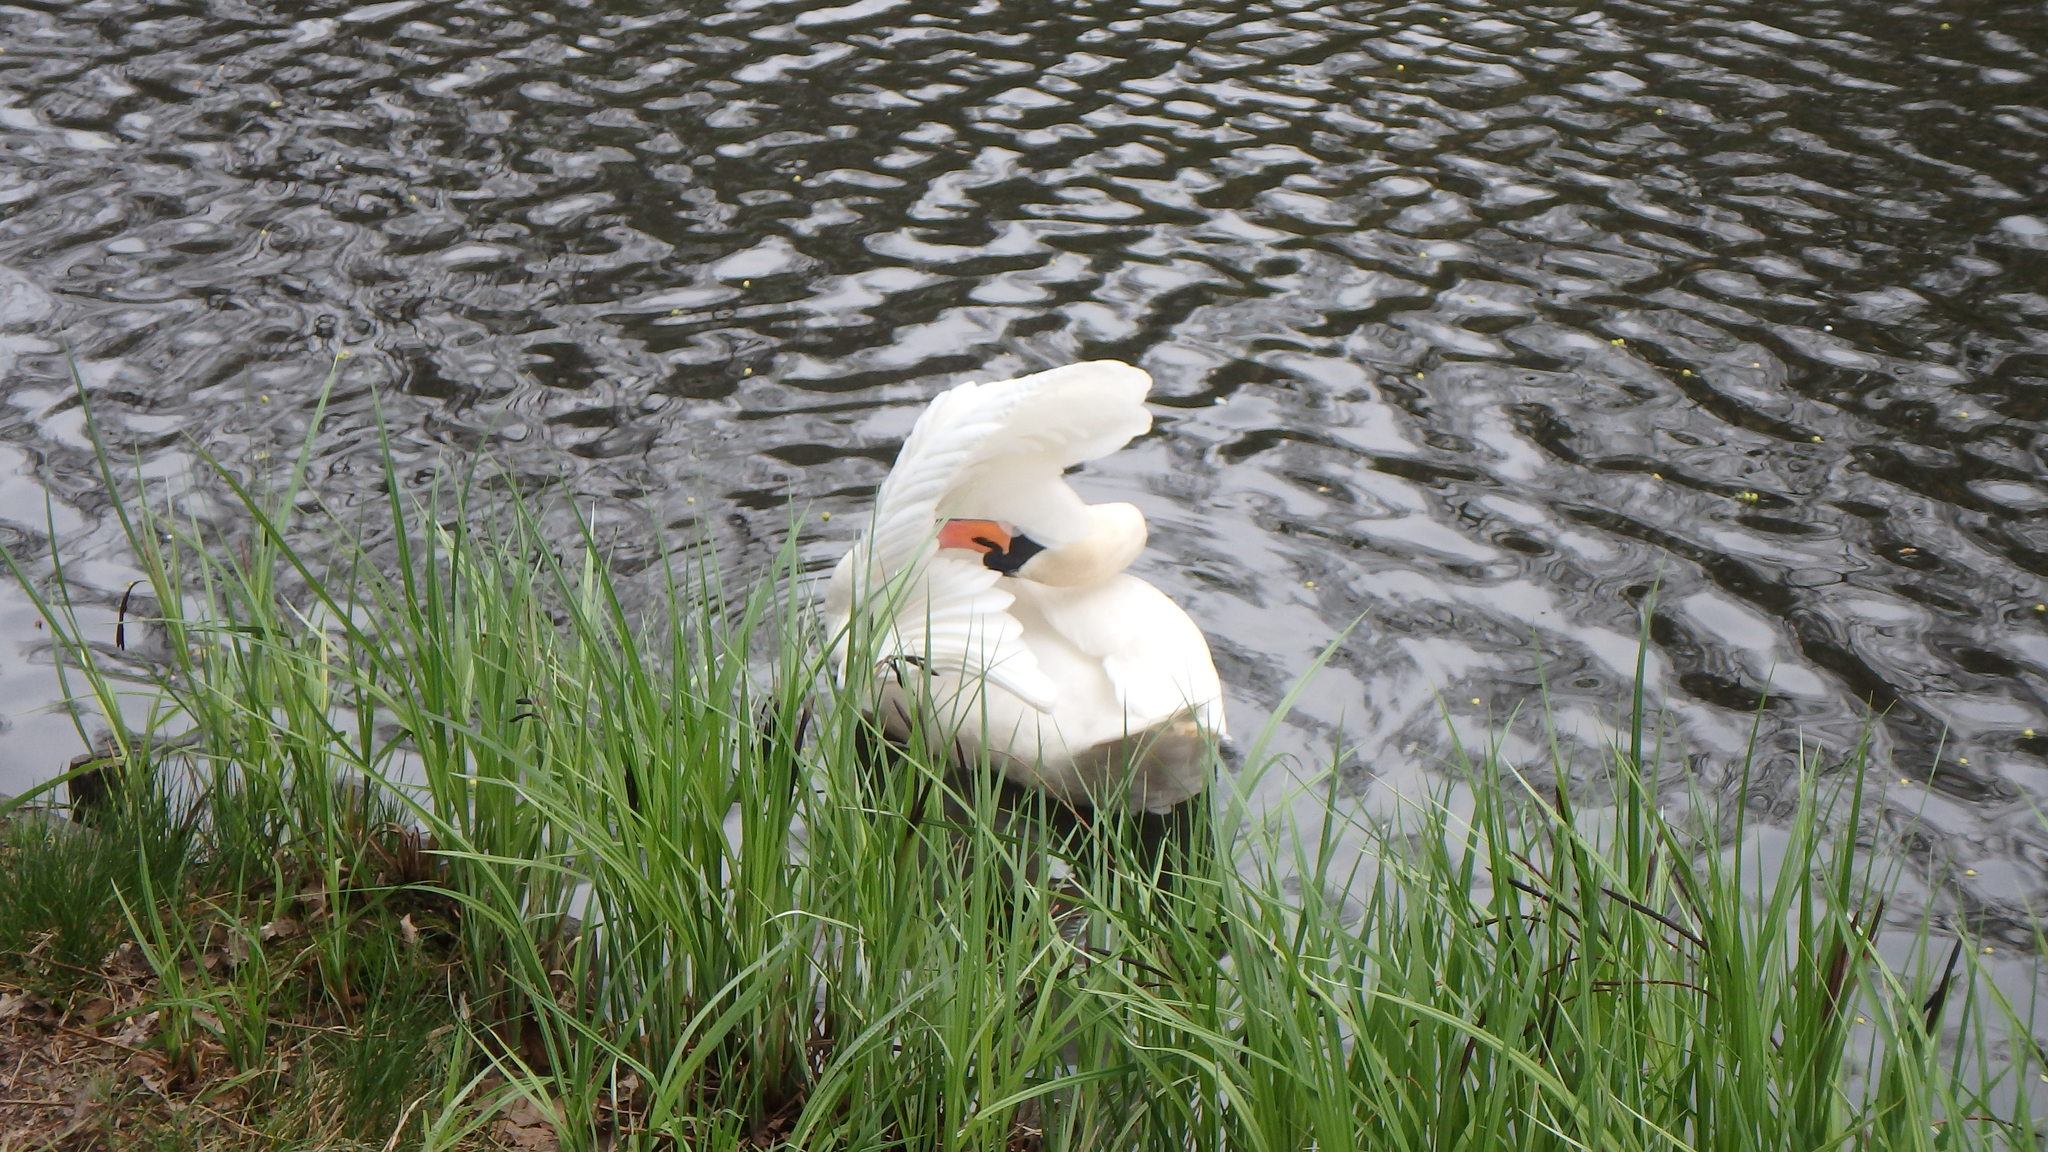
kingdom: Animalia
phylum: Chordata
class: Aves
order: Anseriformes
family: Anatidae
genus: Cygnus
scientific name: Cygnus olor
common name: Mute swan
